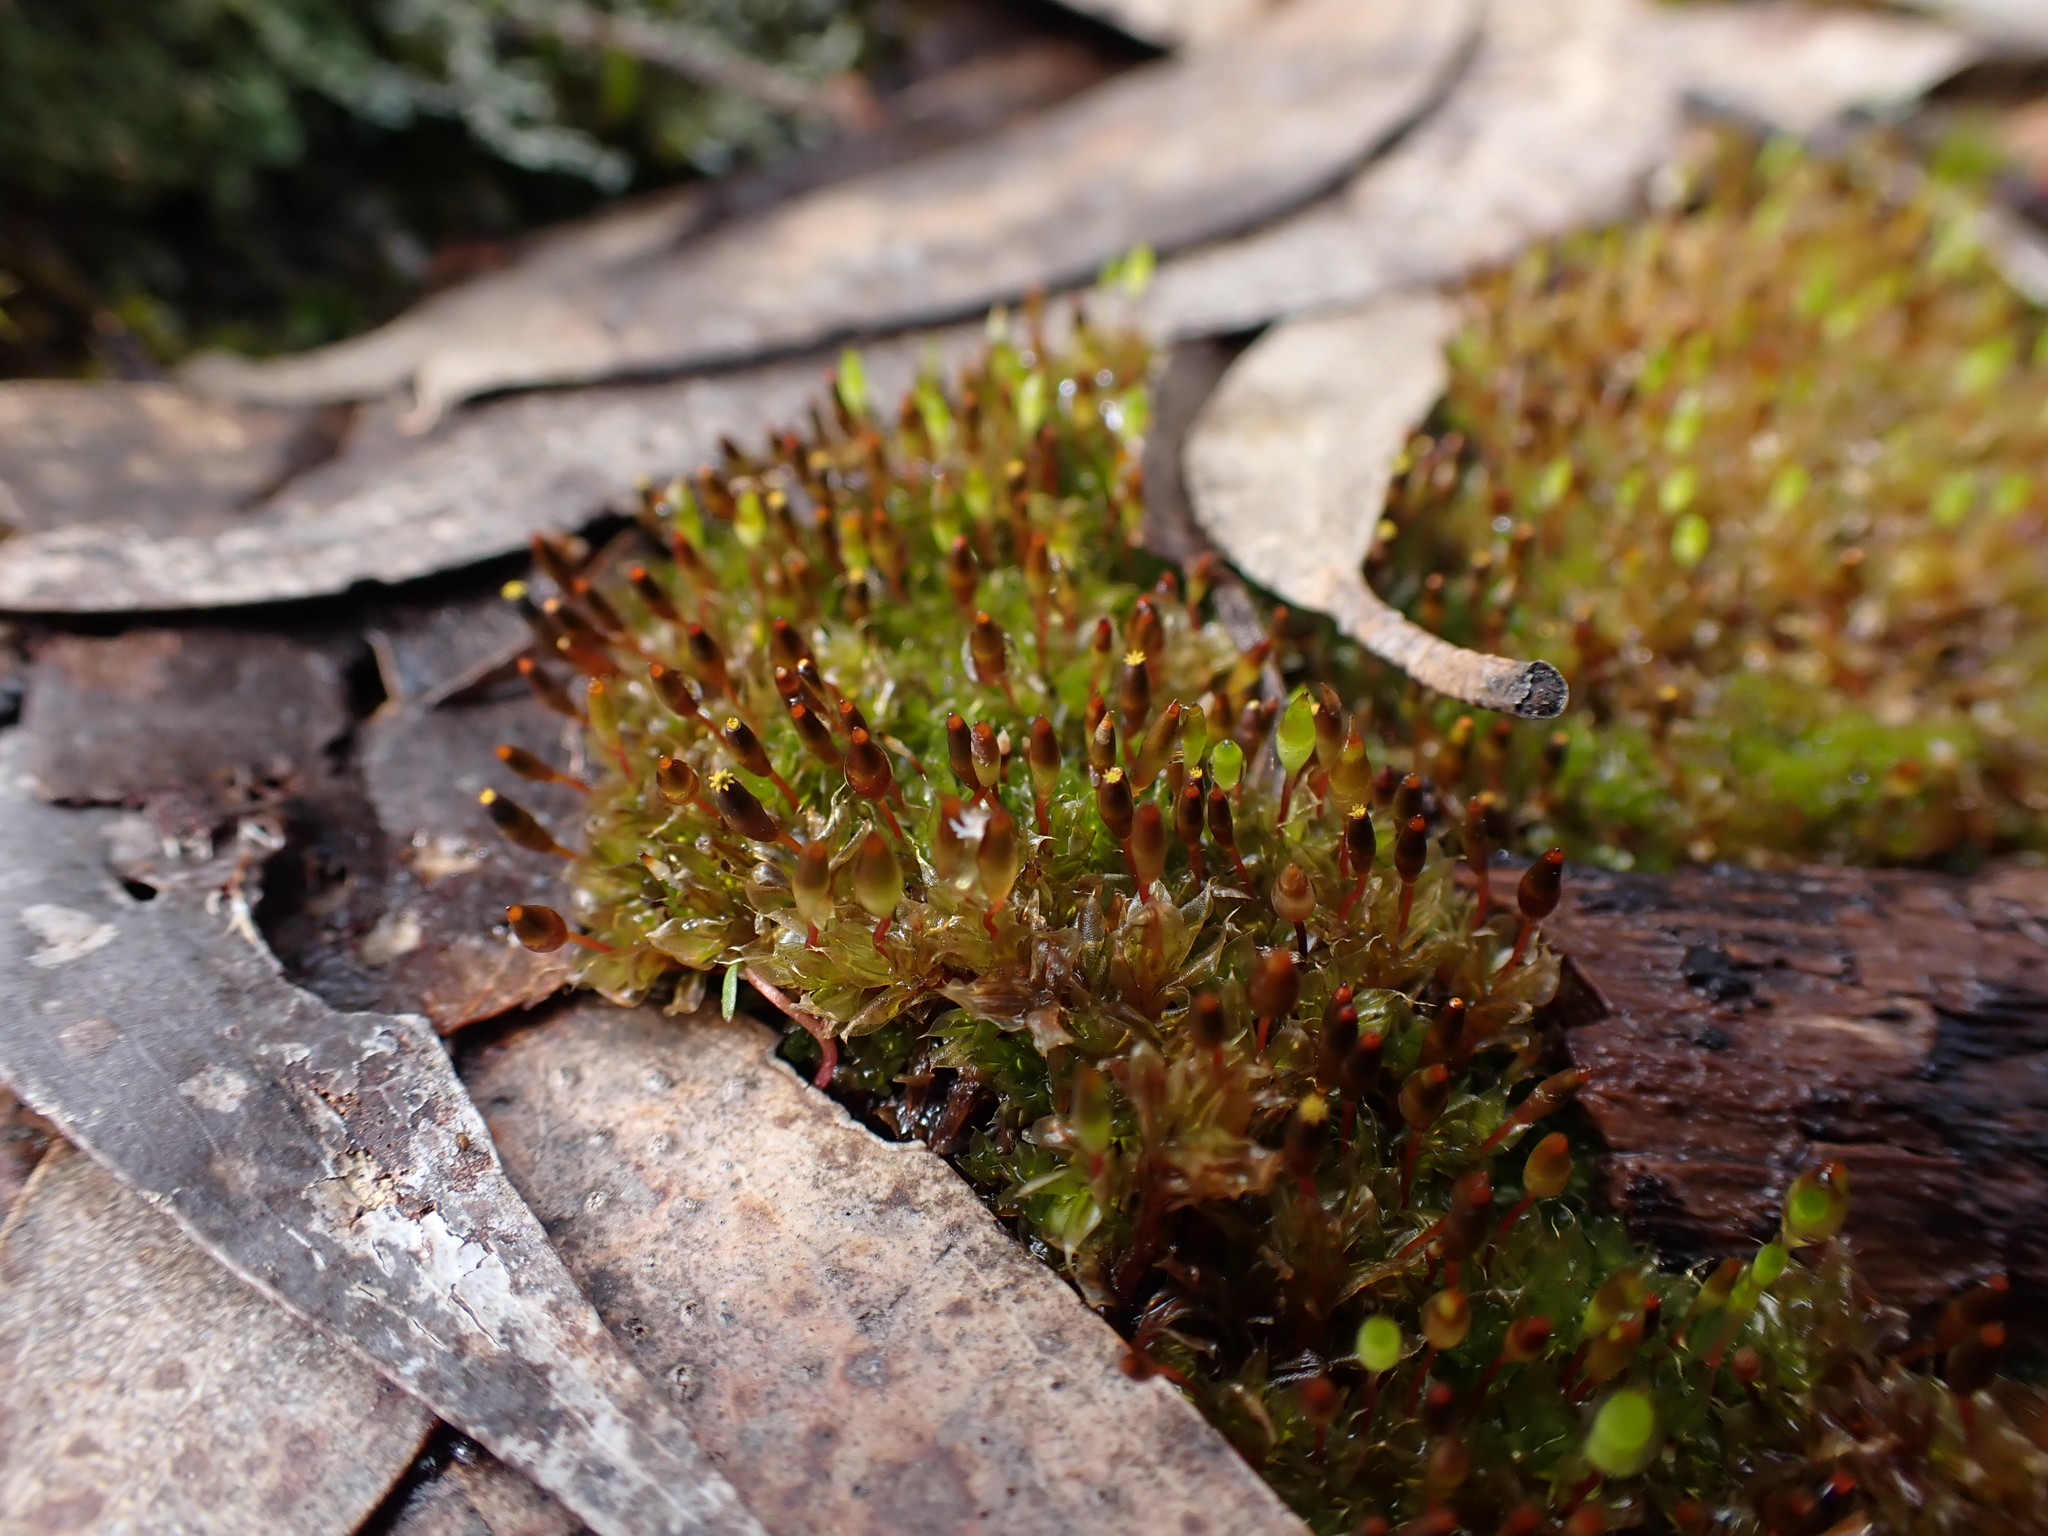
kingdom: Plantae
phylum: Bryophyta
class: Bryopsida
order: Splachnales
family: Splachnaceae
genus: Tayloria
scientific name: Tayloria octoblephara
